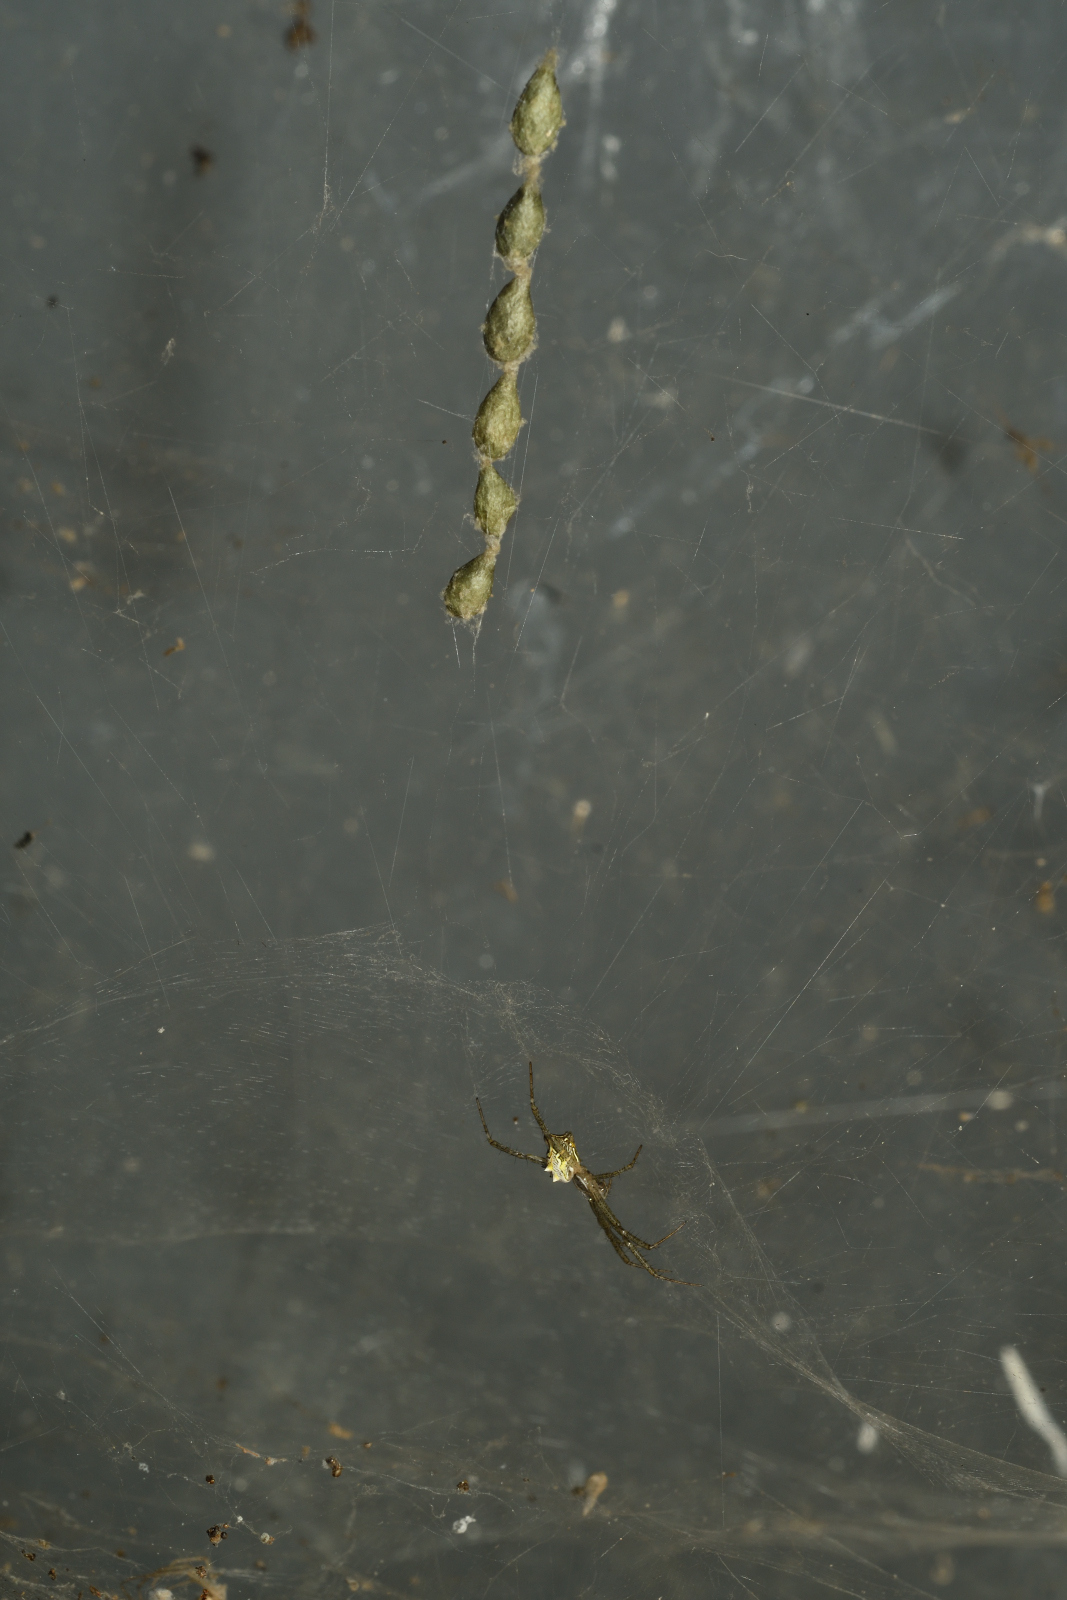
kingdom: Animalia
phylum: Arthropoda
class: Arachnida
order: Araneae
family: Araneidae
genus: Cyrtophora
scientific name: Cyrtophora cicatrosa
